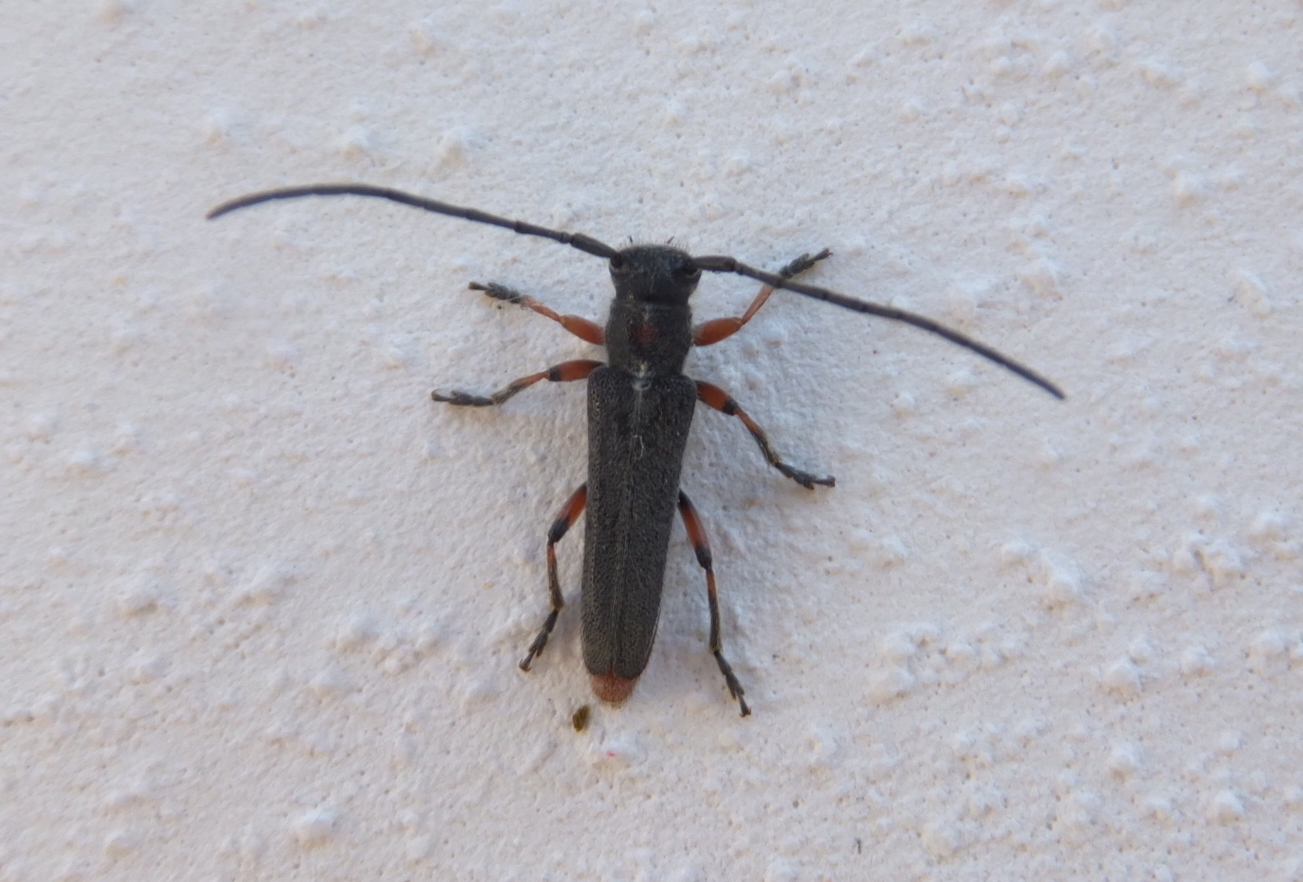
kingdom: Animalia
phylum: Arthropoda
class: Insecta
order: Coleoptera
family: Cerambycidae
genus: Phytoecia
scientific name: Phytoecia virgula
